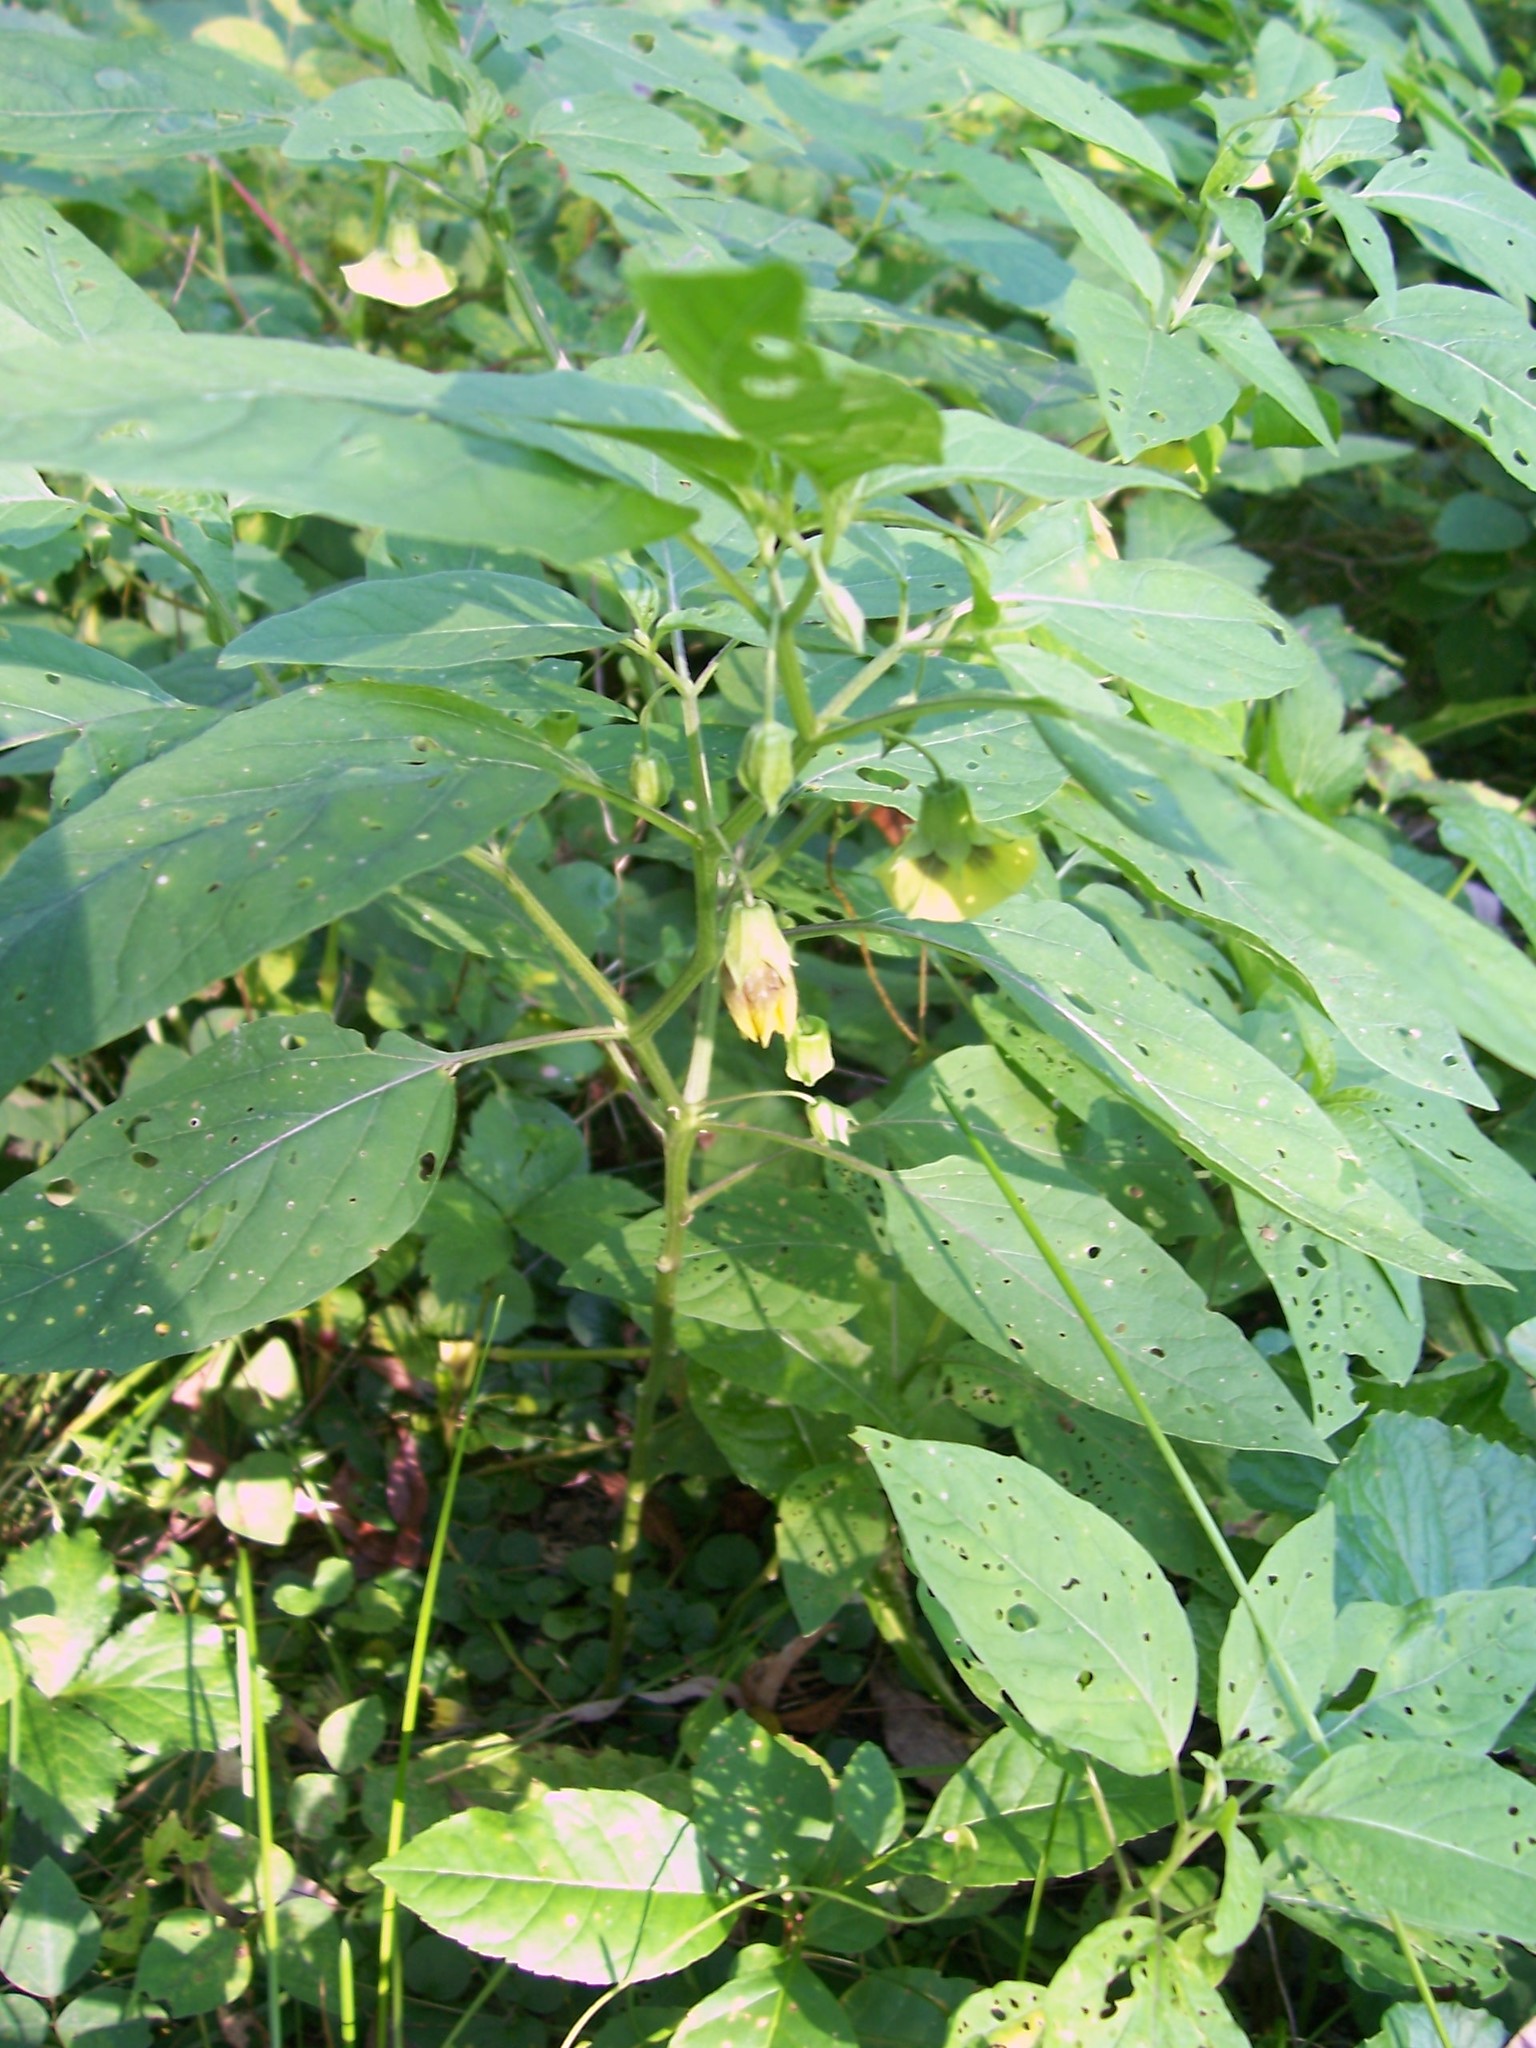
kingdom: Plantae
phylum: Tracheophyta
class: Magnoliopsida
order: Solanales
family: Solanaceae
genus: Physalis
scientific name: Physalis longifolia
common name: Common ground-cherry
